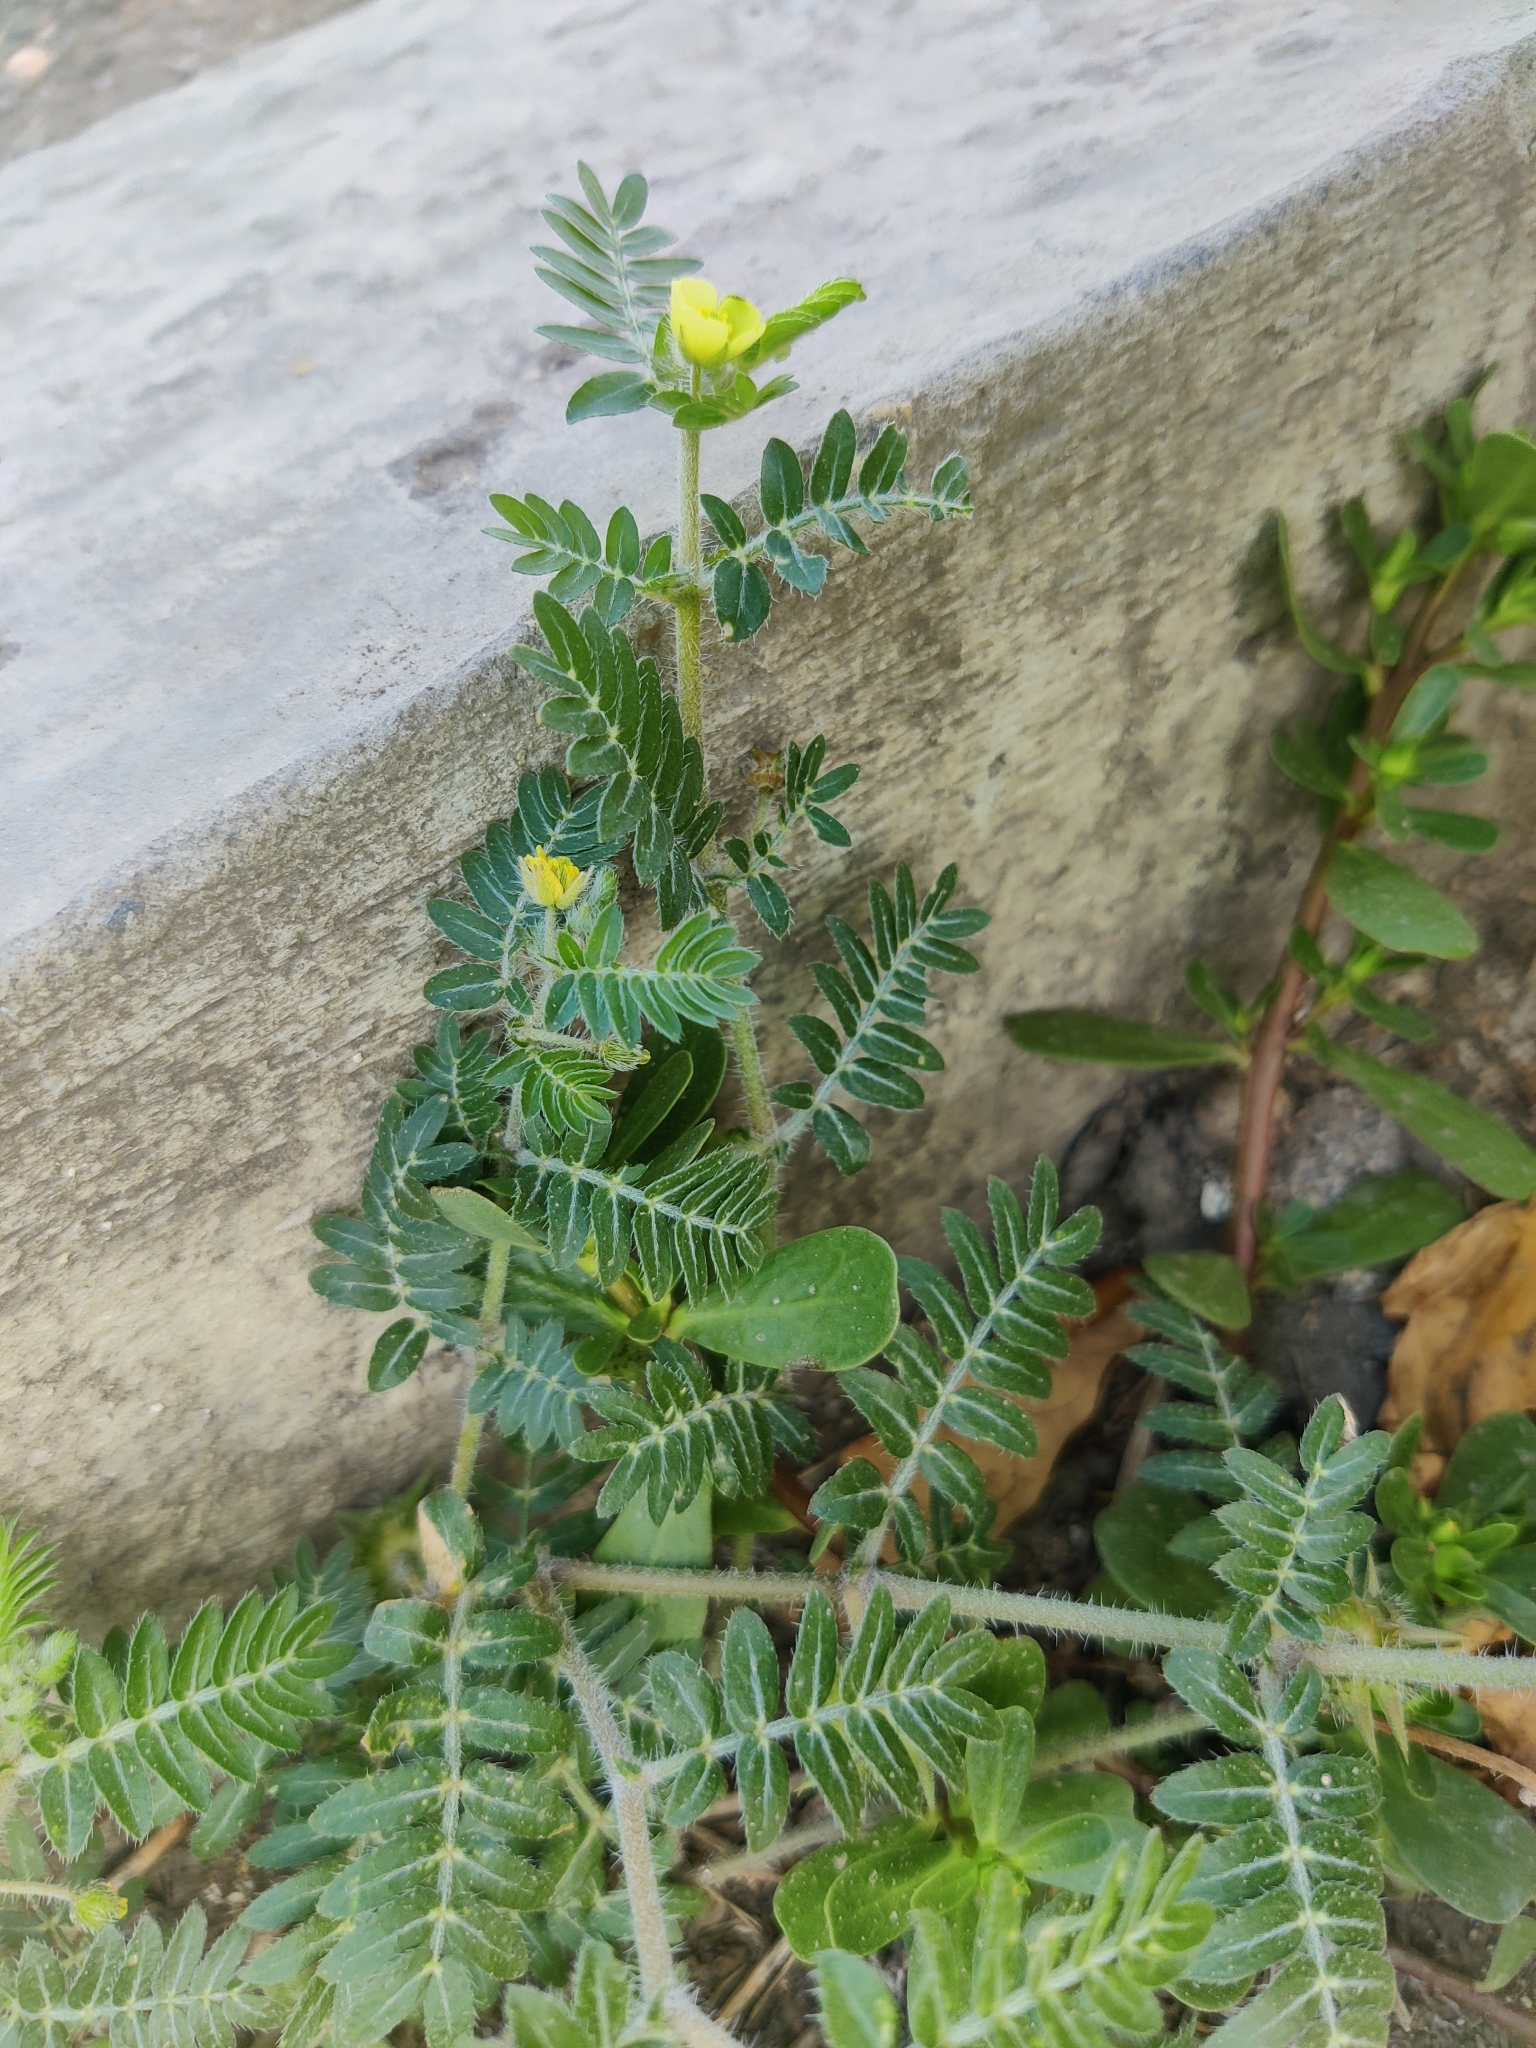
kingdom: Plantae
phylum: Tracheophyta
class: Magnoliopsida
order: Zygophyllales
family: Zygophyllaceae
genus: Tribulus
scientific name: Tribulus terrestris
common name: Puncturevine
